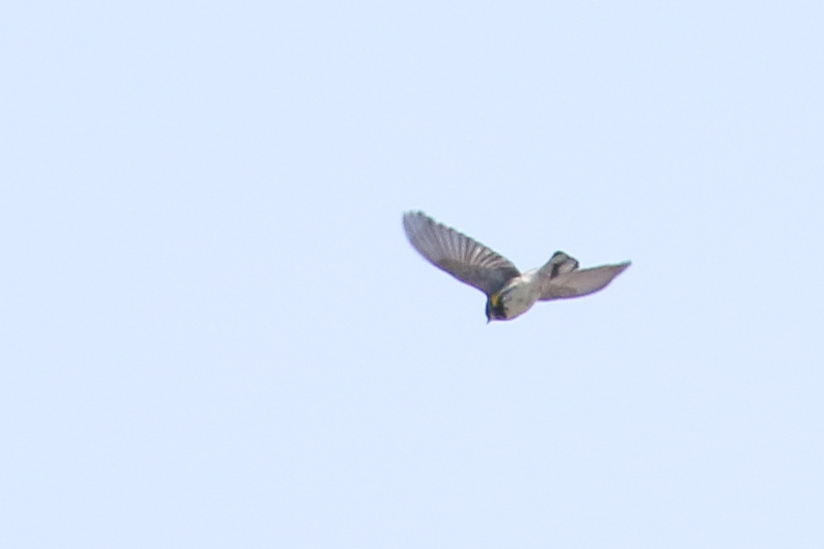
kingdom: Animalia
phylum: Chordata
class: Aves
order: Passeriformes
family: Parulidae
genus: Setophaga
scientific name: Setophaga coronata
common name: Myrtle warbler
